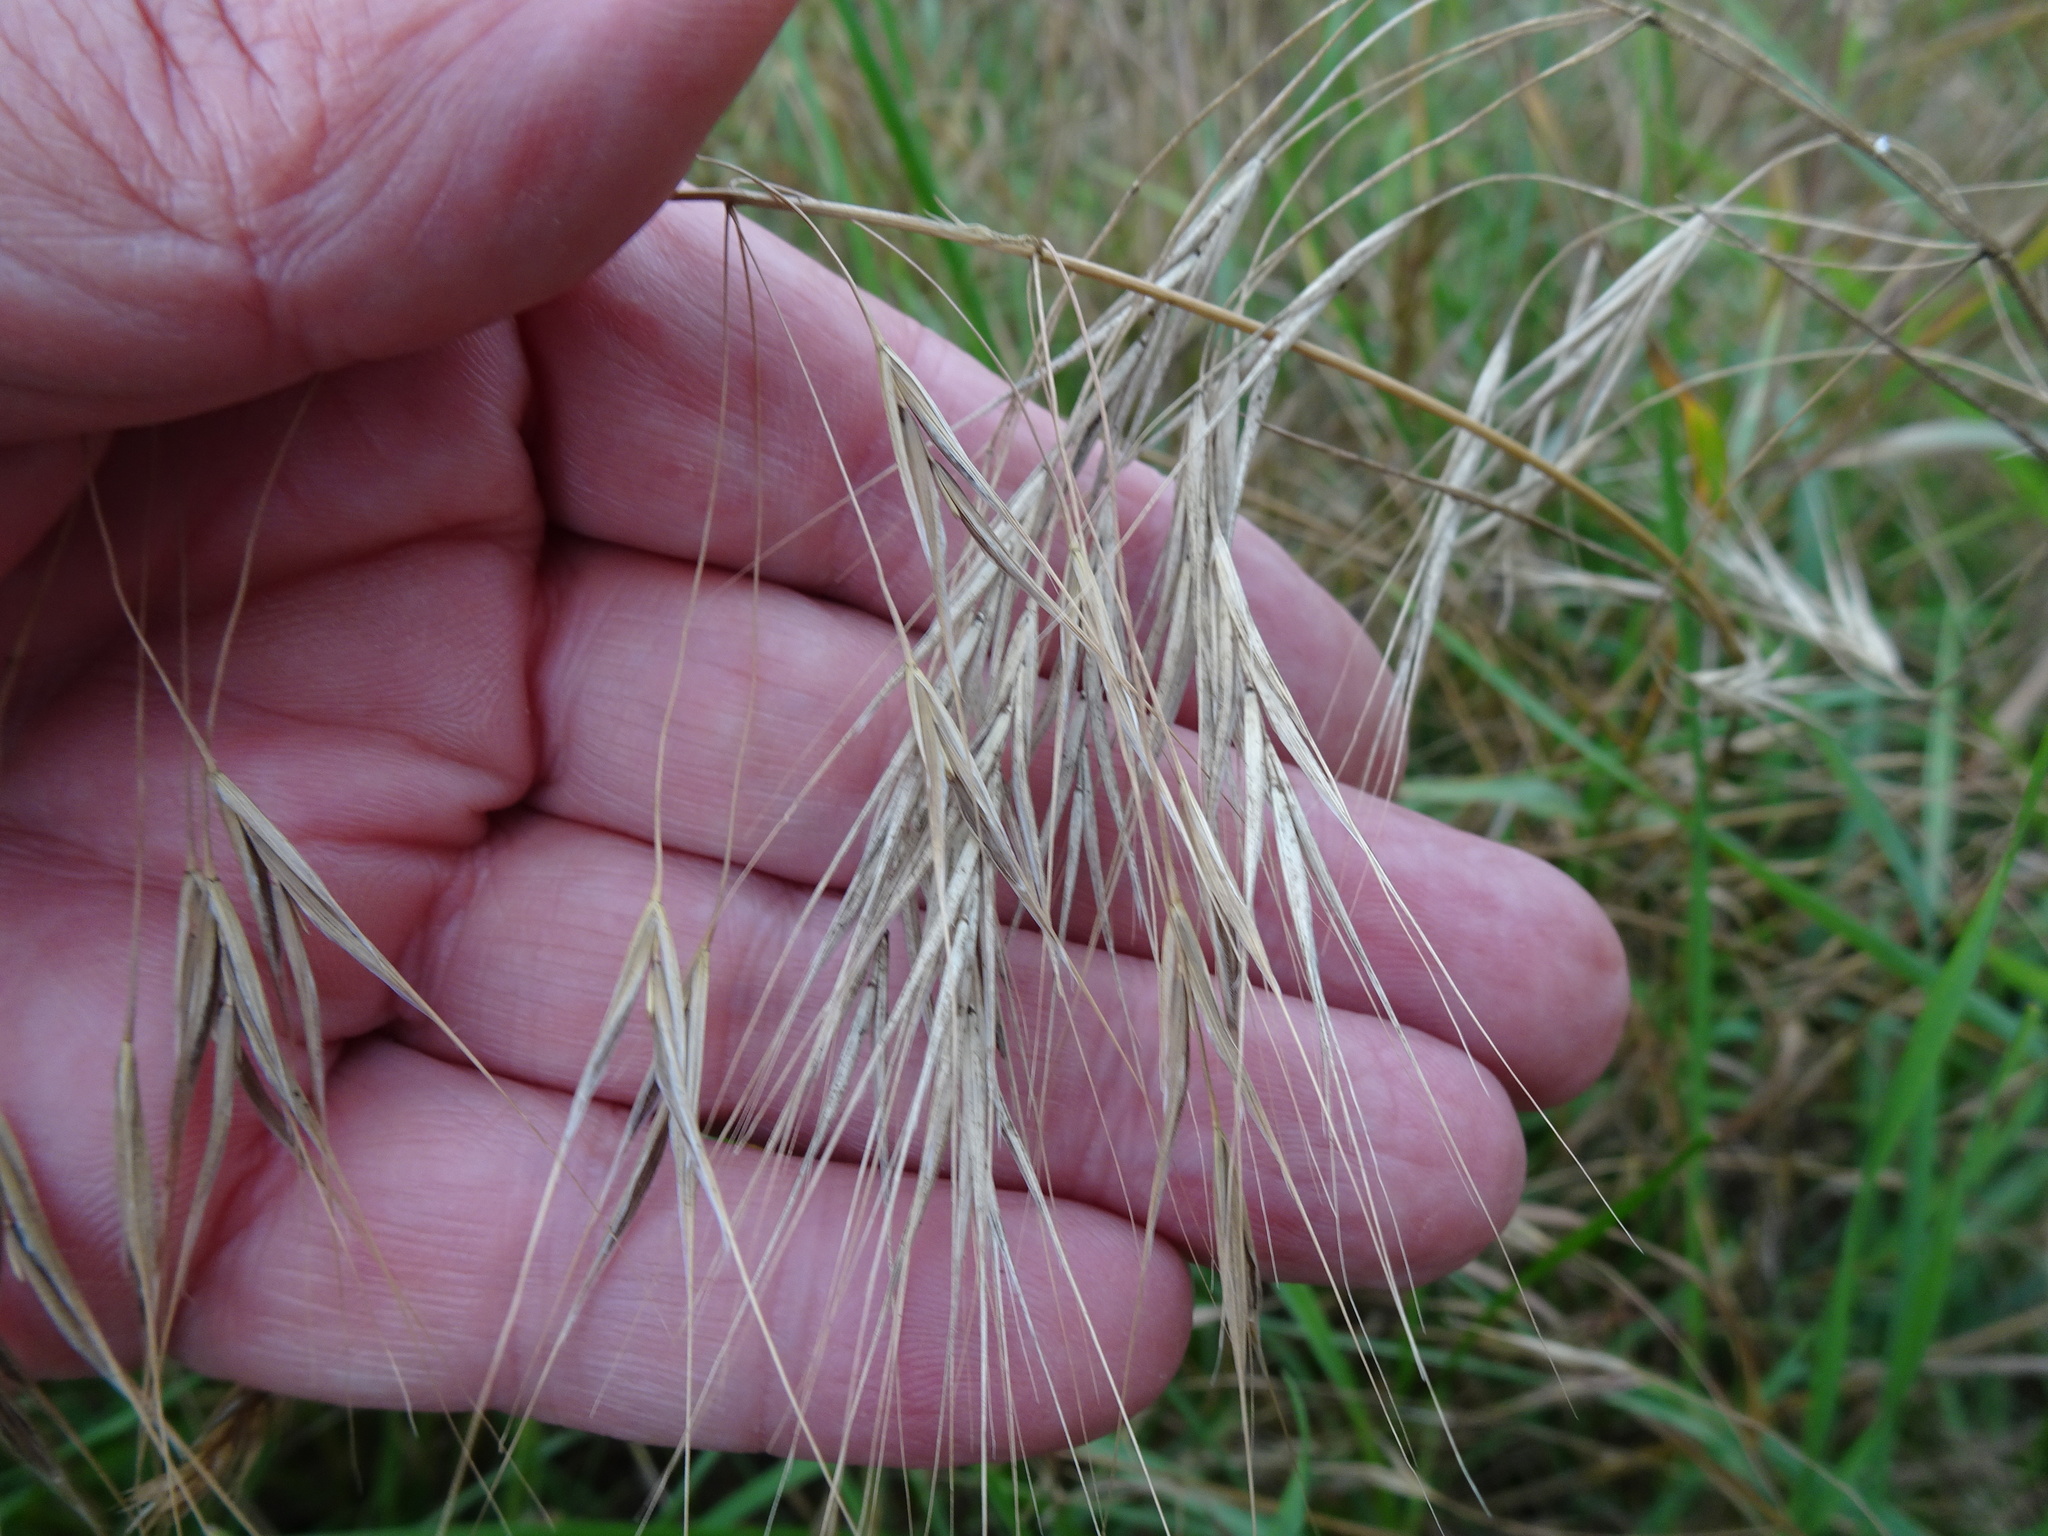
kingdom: Plantae
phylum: Tracheophyta
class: Liliopsida
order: Poales
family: Poaceae
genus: Bromus
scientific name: Bromus sterilis
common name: Poverty brome
